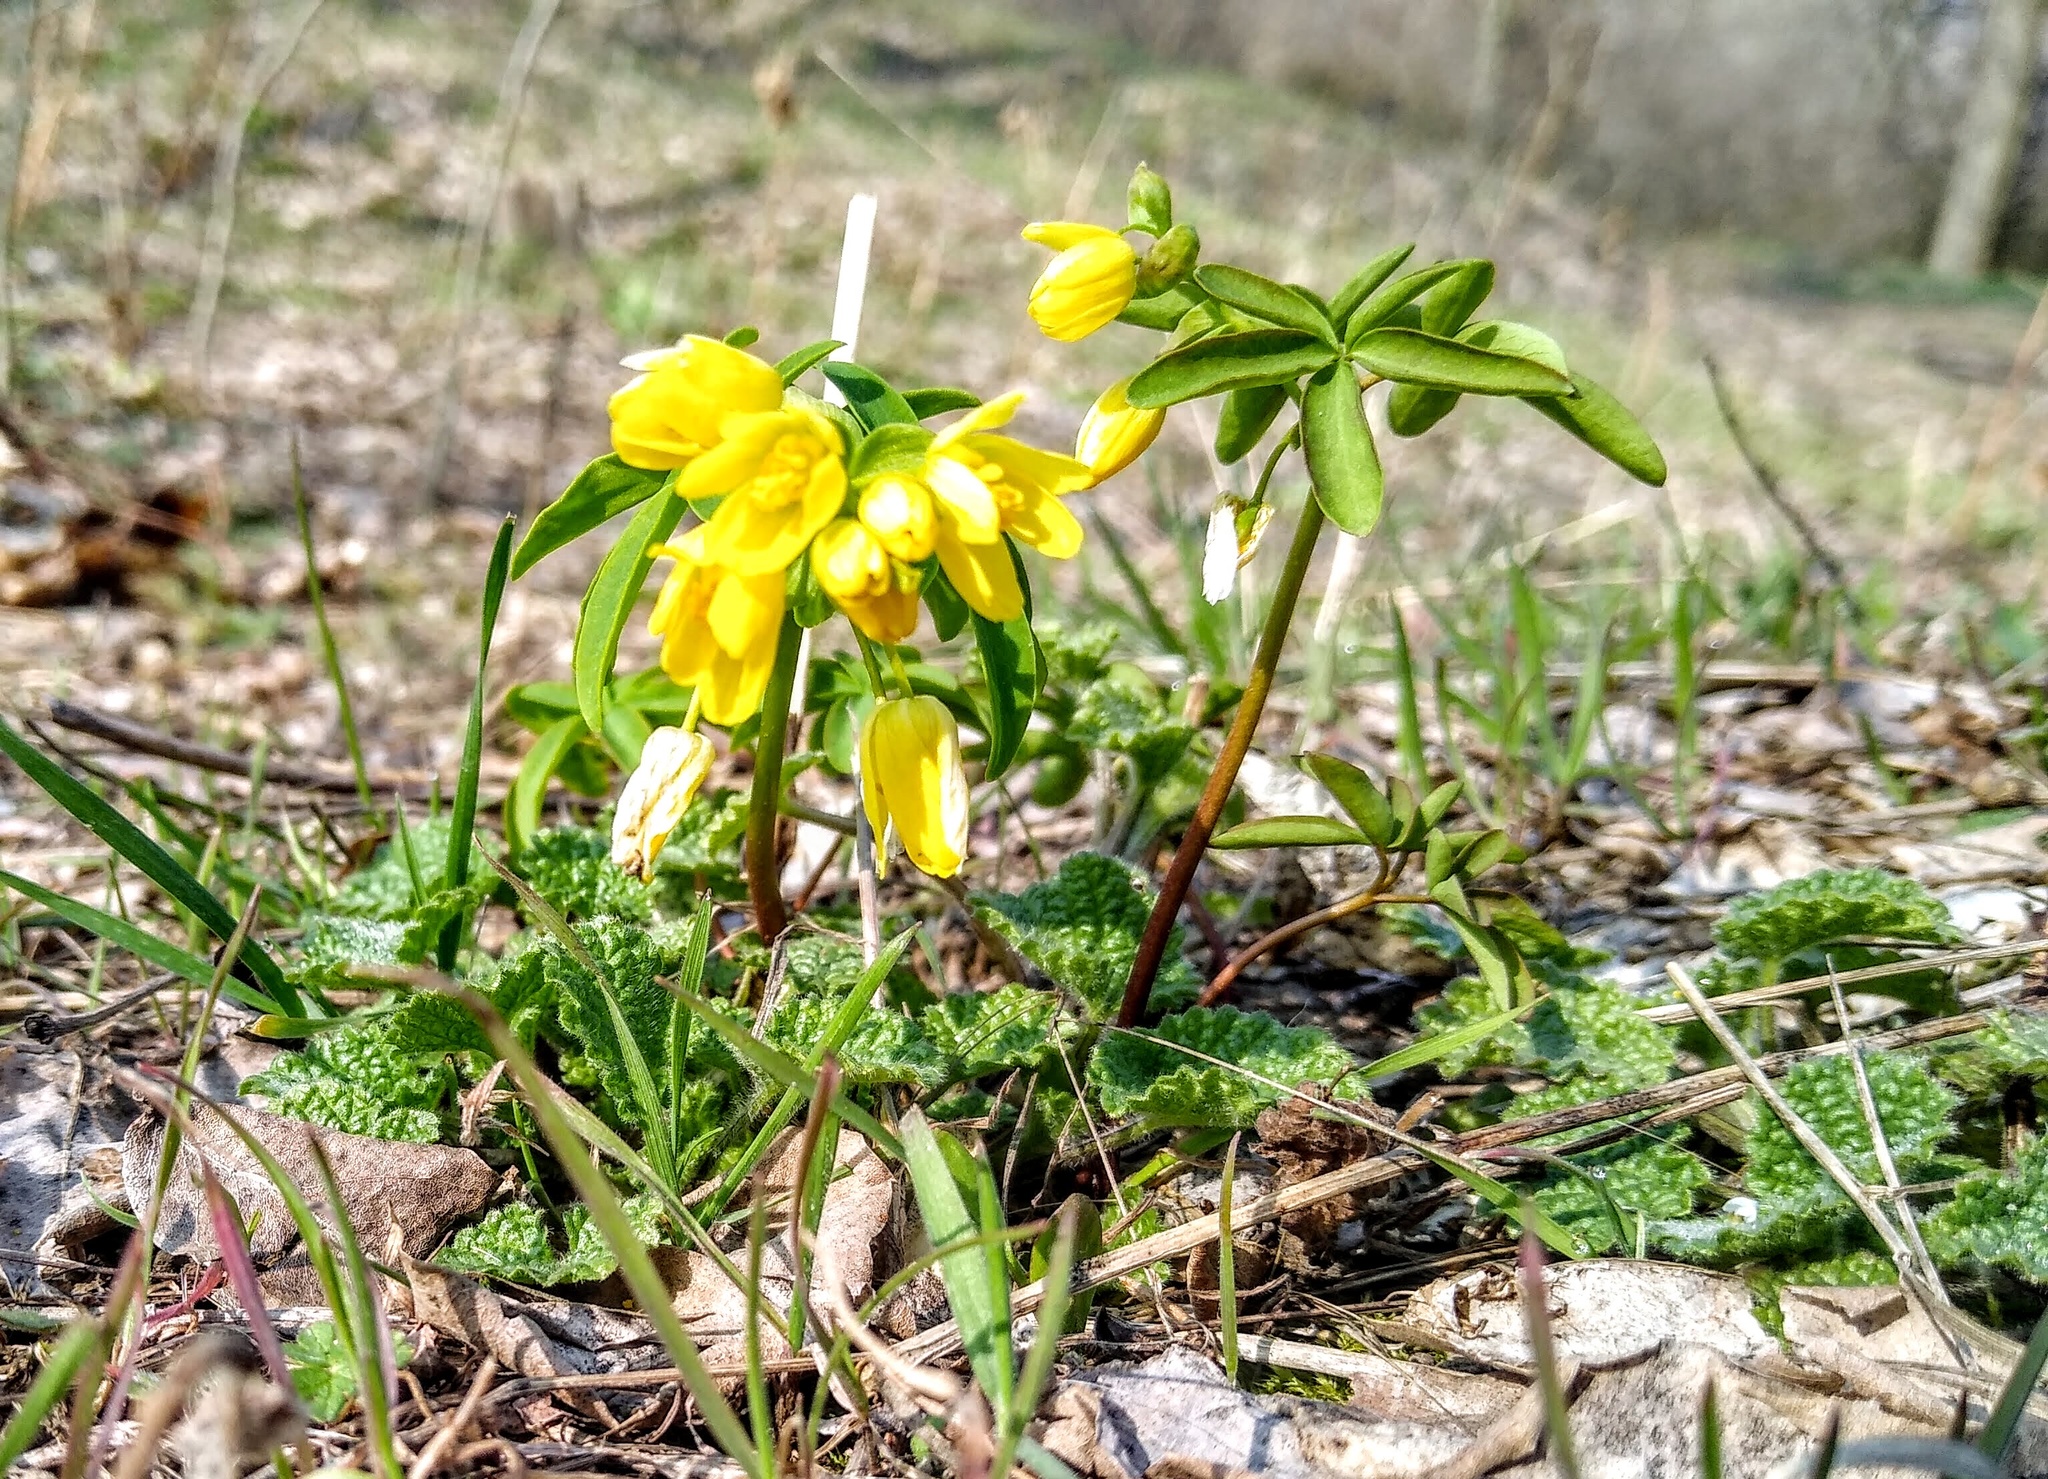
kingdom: Plantae
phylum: Tracheophyta
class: Magnoliopsida
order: Ranunculales
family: Berberidaceae
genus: Gymnospermium
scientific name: Gymnospermium odessanum
